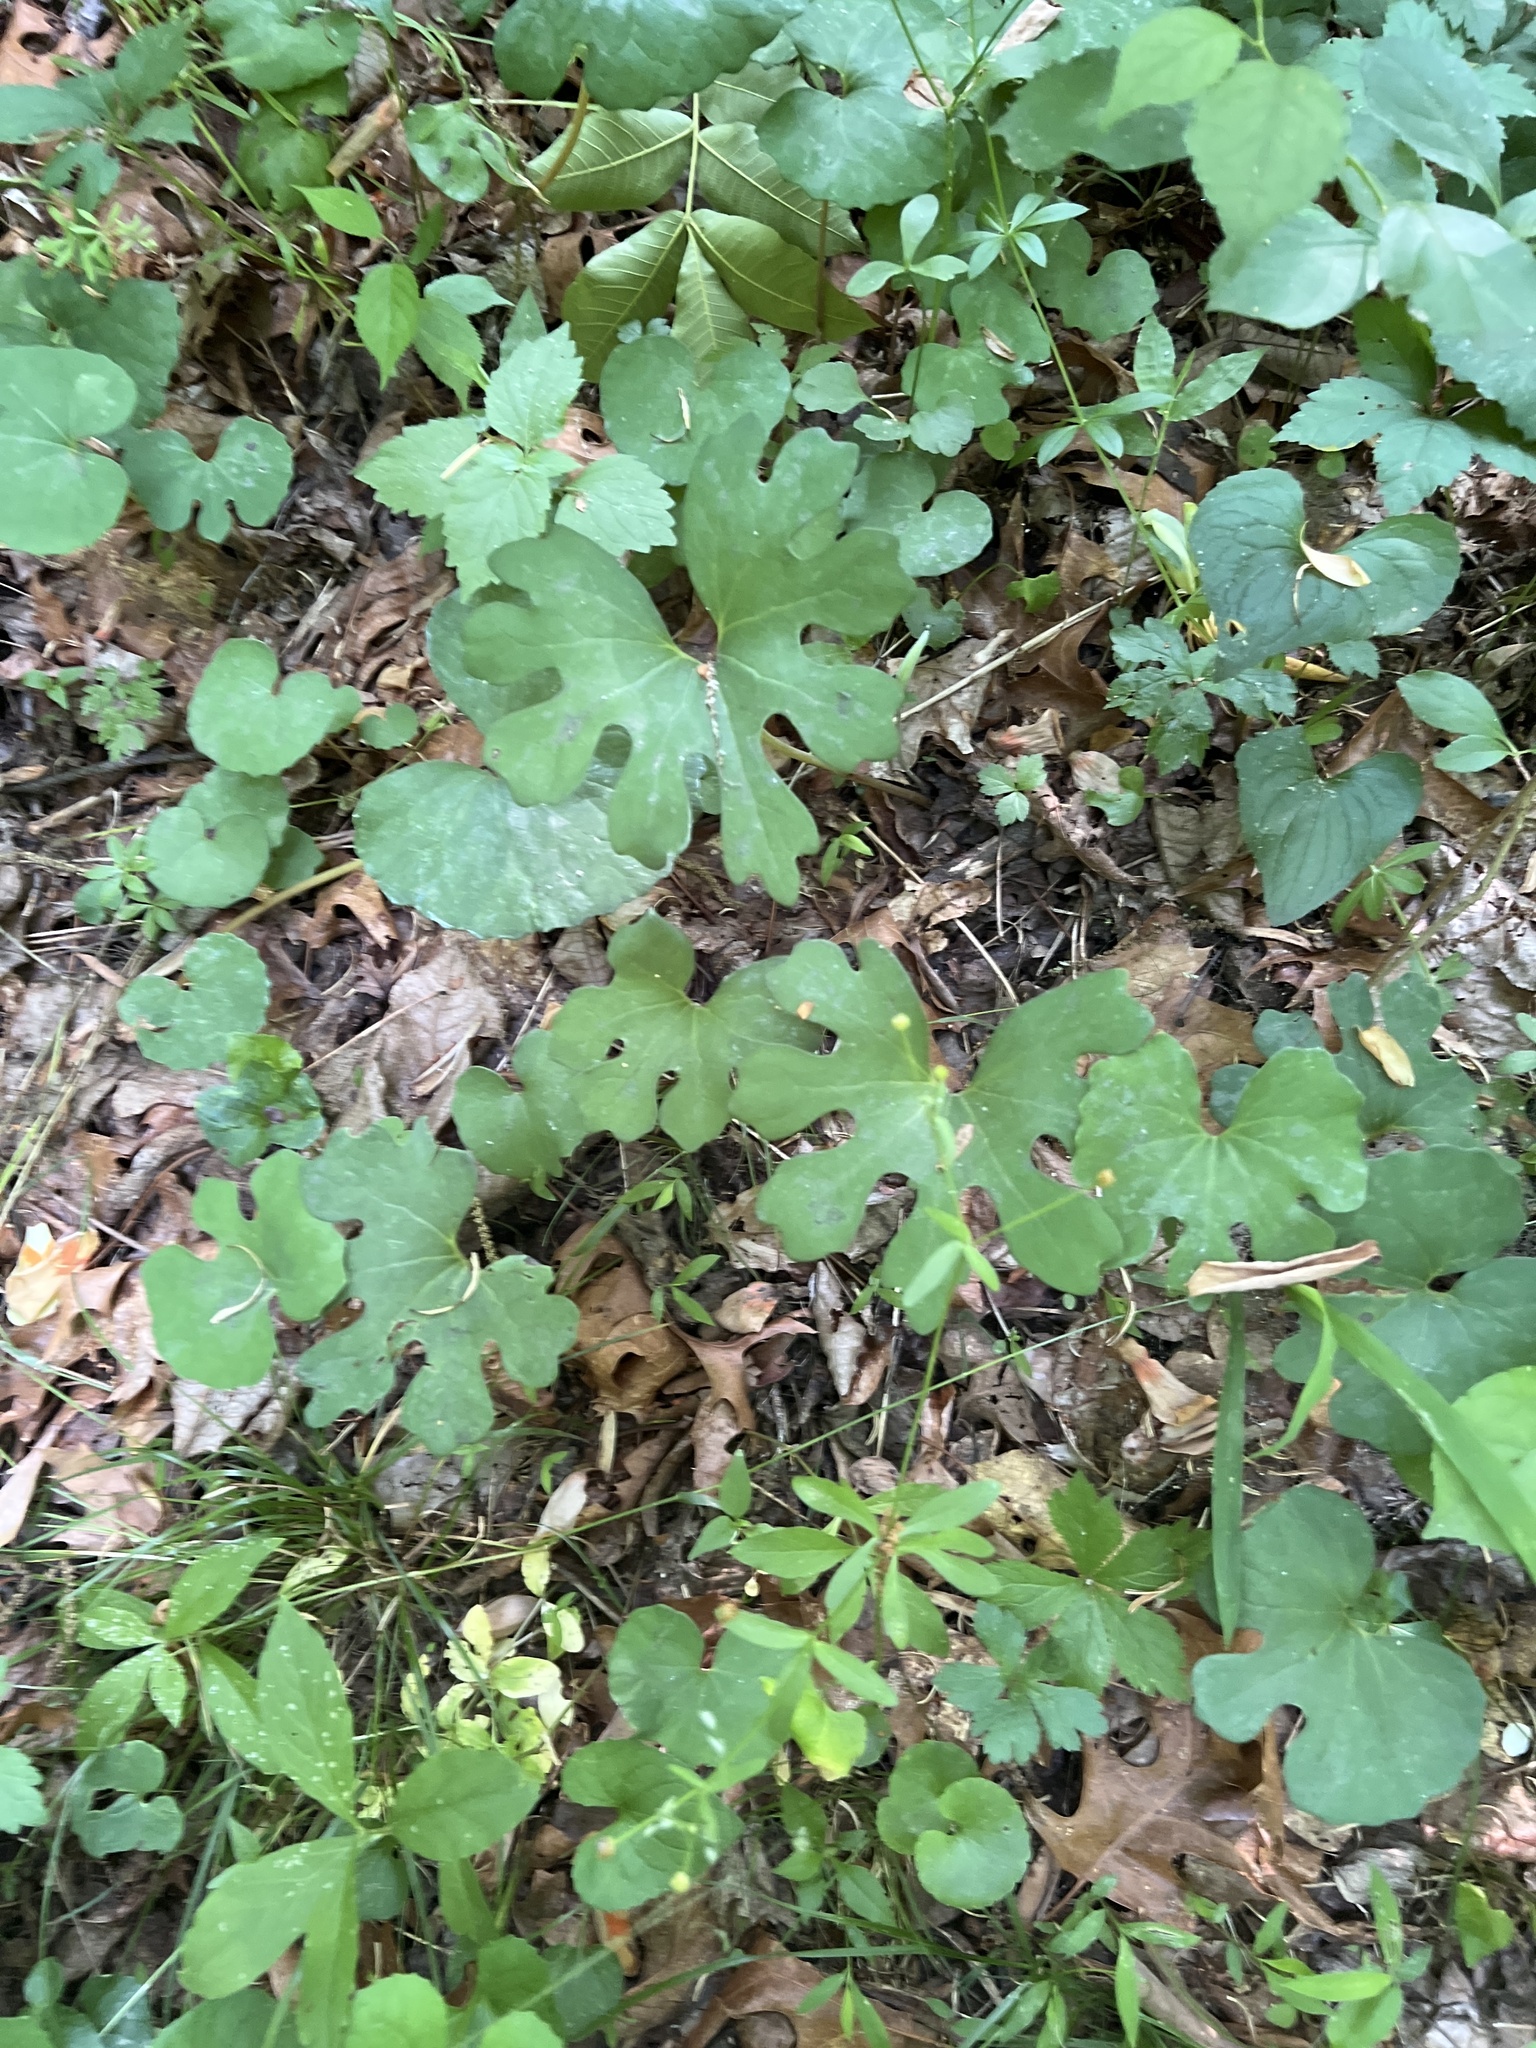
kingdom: Plantae
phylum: Tracheophyta
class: Magnoliopsida
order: Ranunculales
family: Papaveraceae
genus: Sanguinaria
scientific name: Sanguinaria canadensis
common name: Bloodroot
